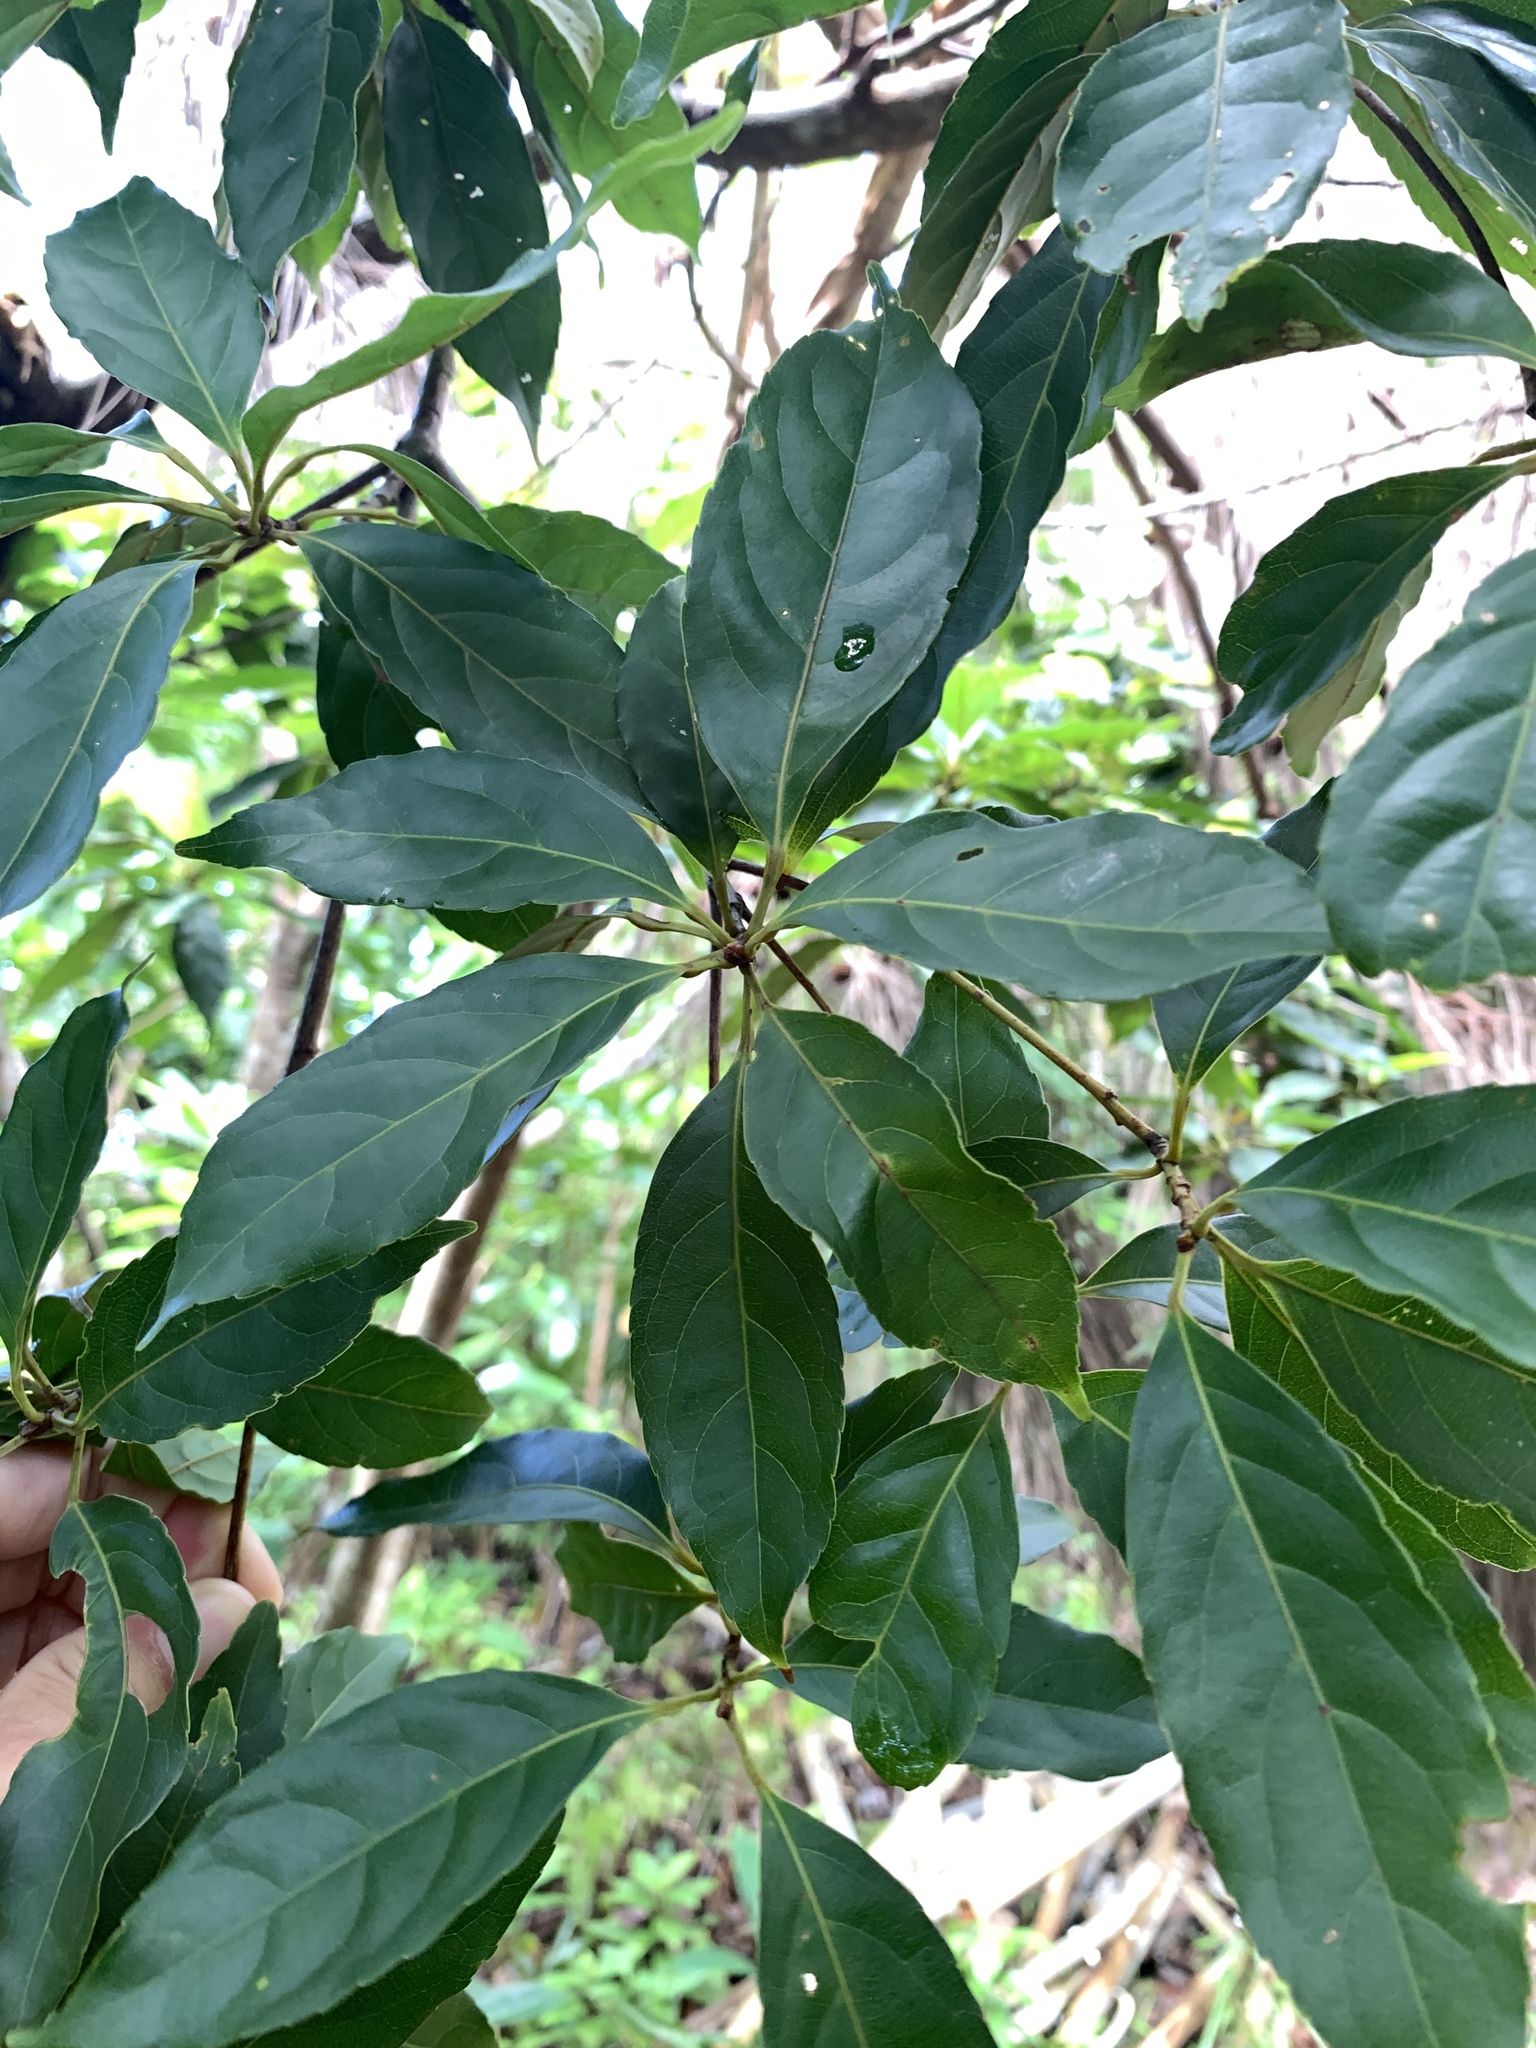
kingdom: Plantae
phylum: Tracheophyta
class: Magnoliopsida
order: Oxalidales
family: Elaeocarpaceae
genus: Elaeocarpus
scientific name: Elaeocarpus argenteus
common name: Flowering plant
